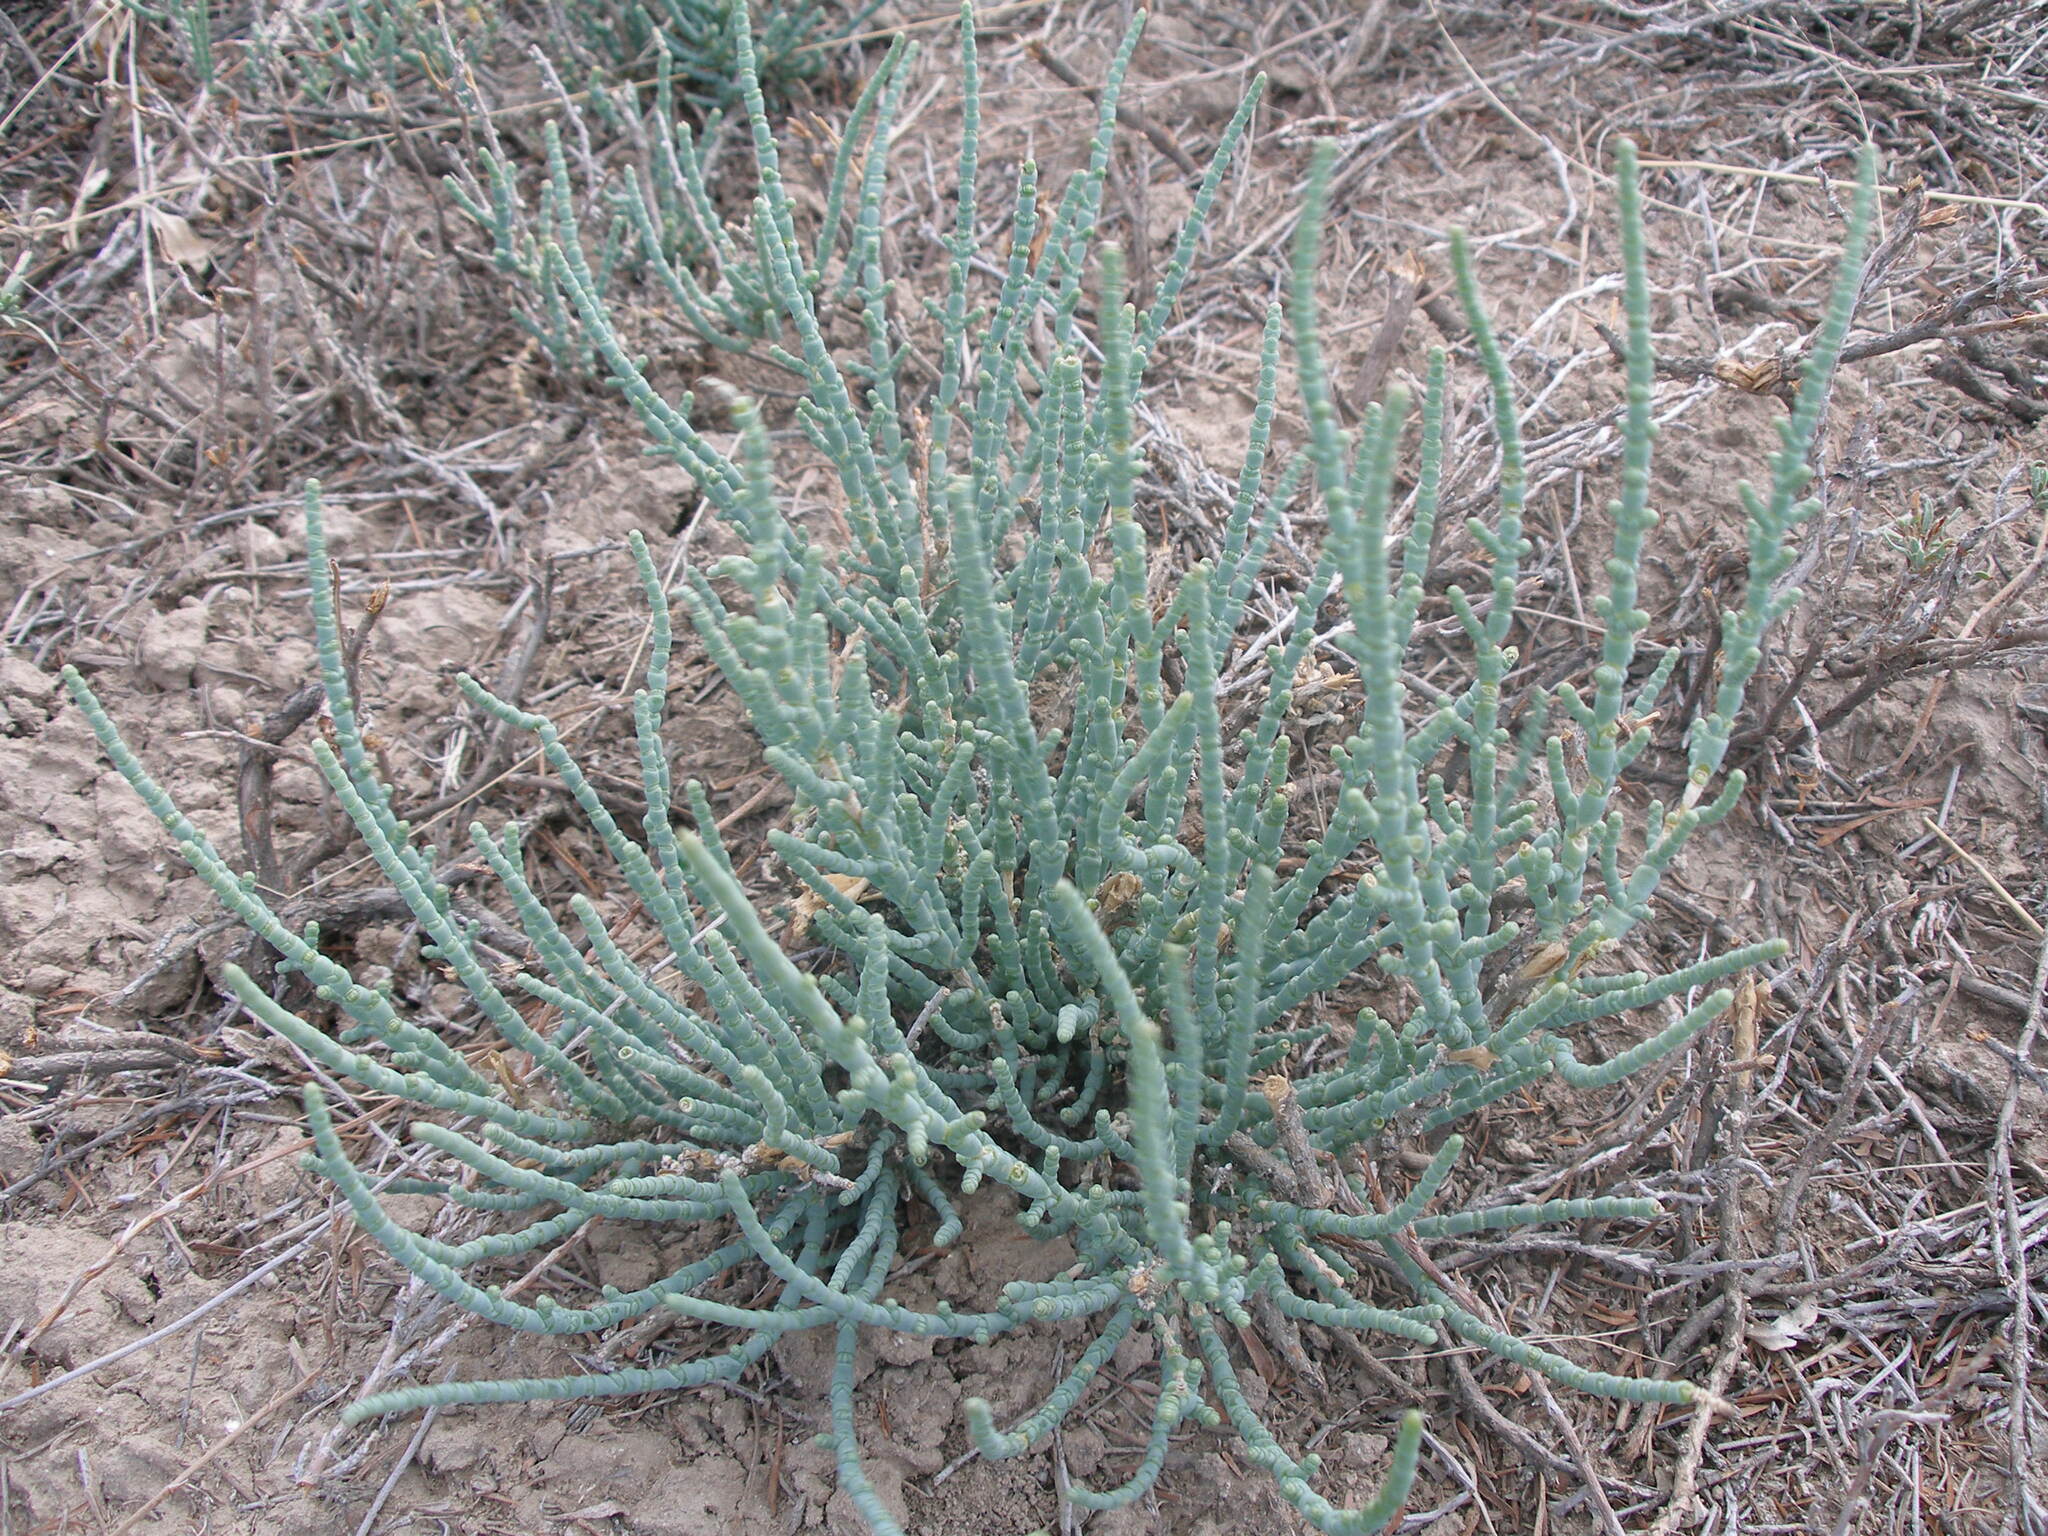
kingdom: Plantae
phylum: Tracheophyta
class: Magnoliopsida
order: Caryophyllales
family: Amaranthaceae
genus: Halocnemum
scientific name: Halocnemum strobilaceum
